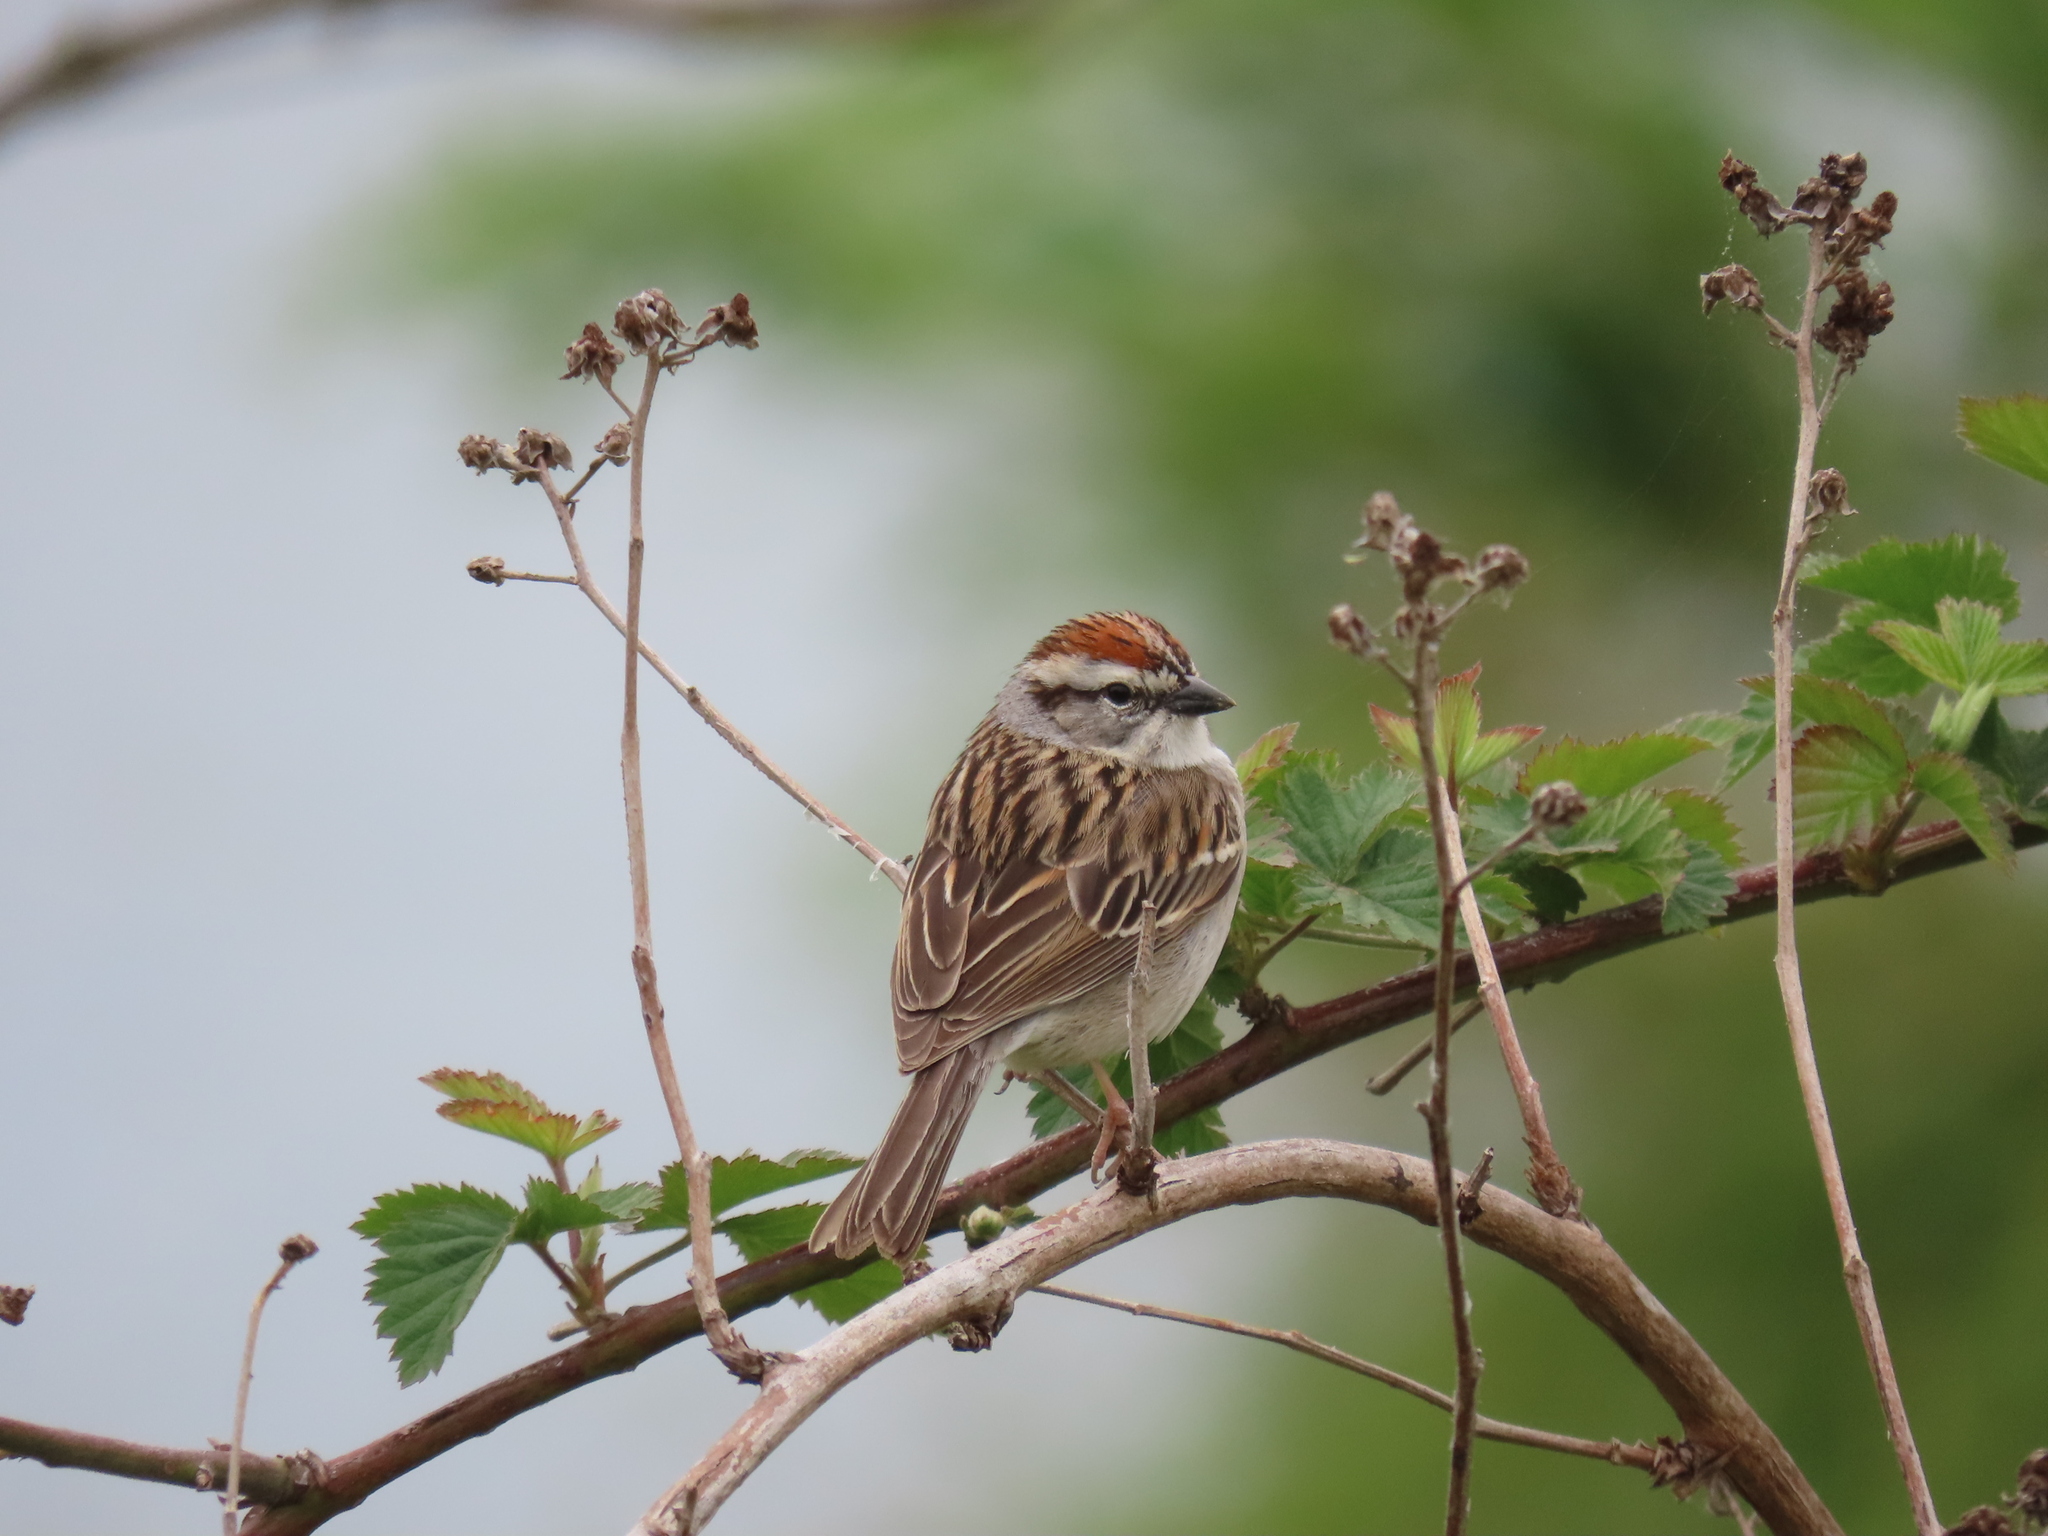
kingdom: Animalia
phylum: Chordata
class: Aves
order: Passeriformes
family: Passerellidae
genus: Spizella
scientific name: Spizella passerina
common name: Chipping sparrow
